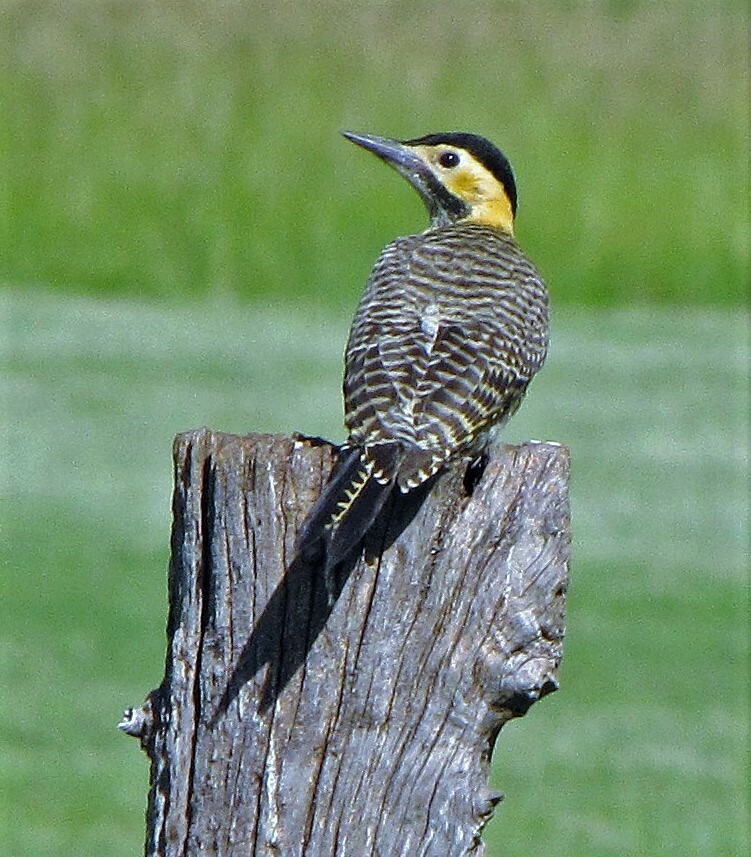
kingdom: Animalia
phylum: Chordata
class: Aves
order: Piciformes
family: Picidae
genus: Colaptes
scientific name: Colaptes campestris
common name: Campo flicker
